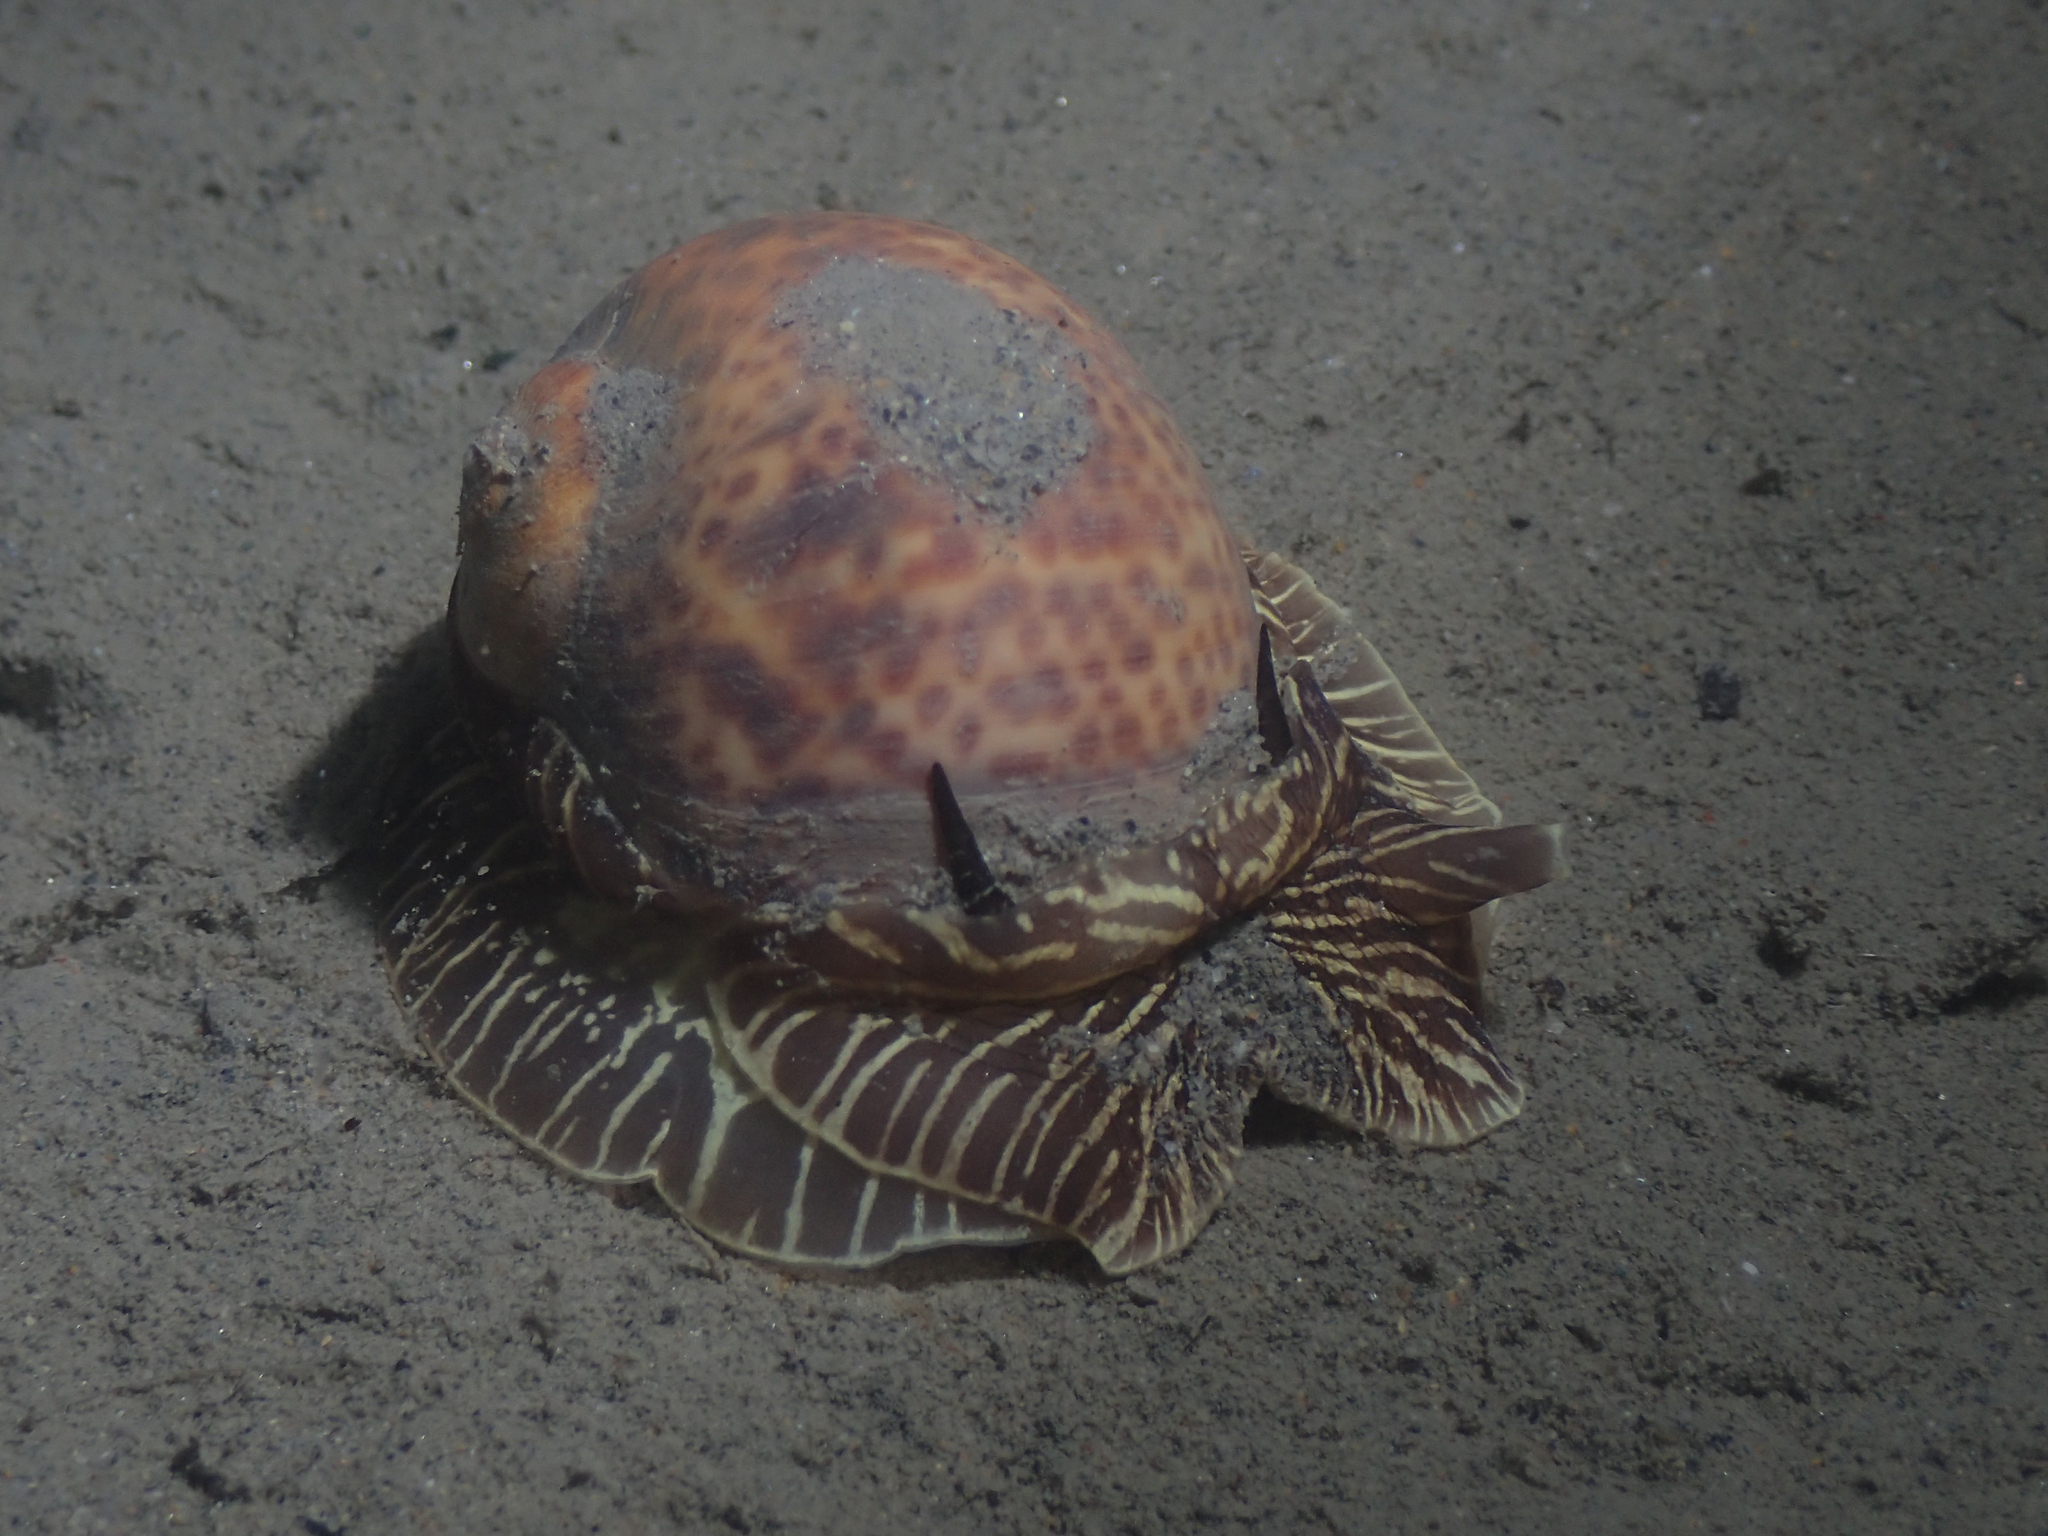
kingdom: Animalia
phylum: Mollusca
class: Gastropoda
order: Littorinimorpha
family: Naticidae
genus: Naticarius
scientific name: Naticarius hebraeus
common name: Hebrew moon shell
